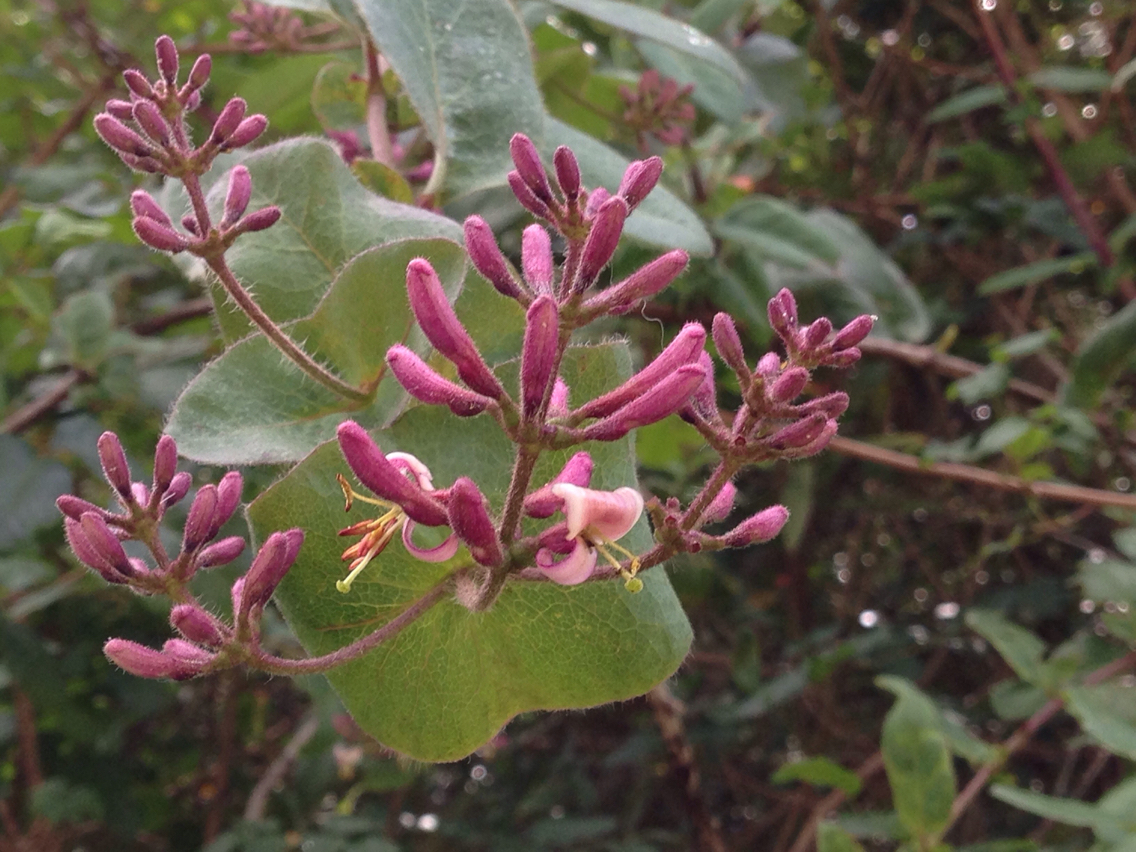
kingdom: Plantae
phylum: Tracheophyta
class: Magnoliopsida
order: Dipsacales
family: Caprifoliaceae
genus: Lonicera
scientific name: Lonicera hispidula
